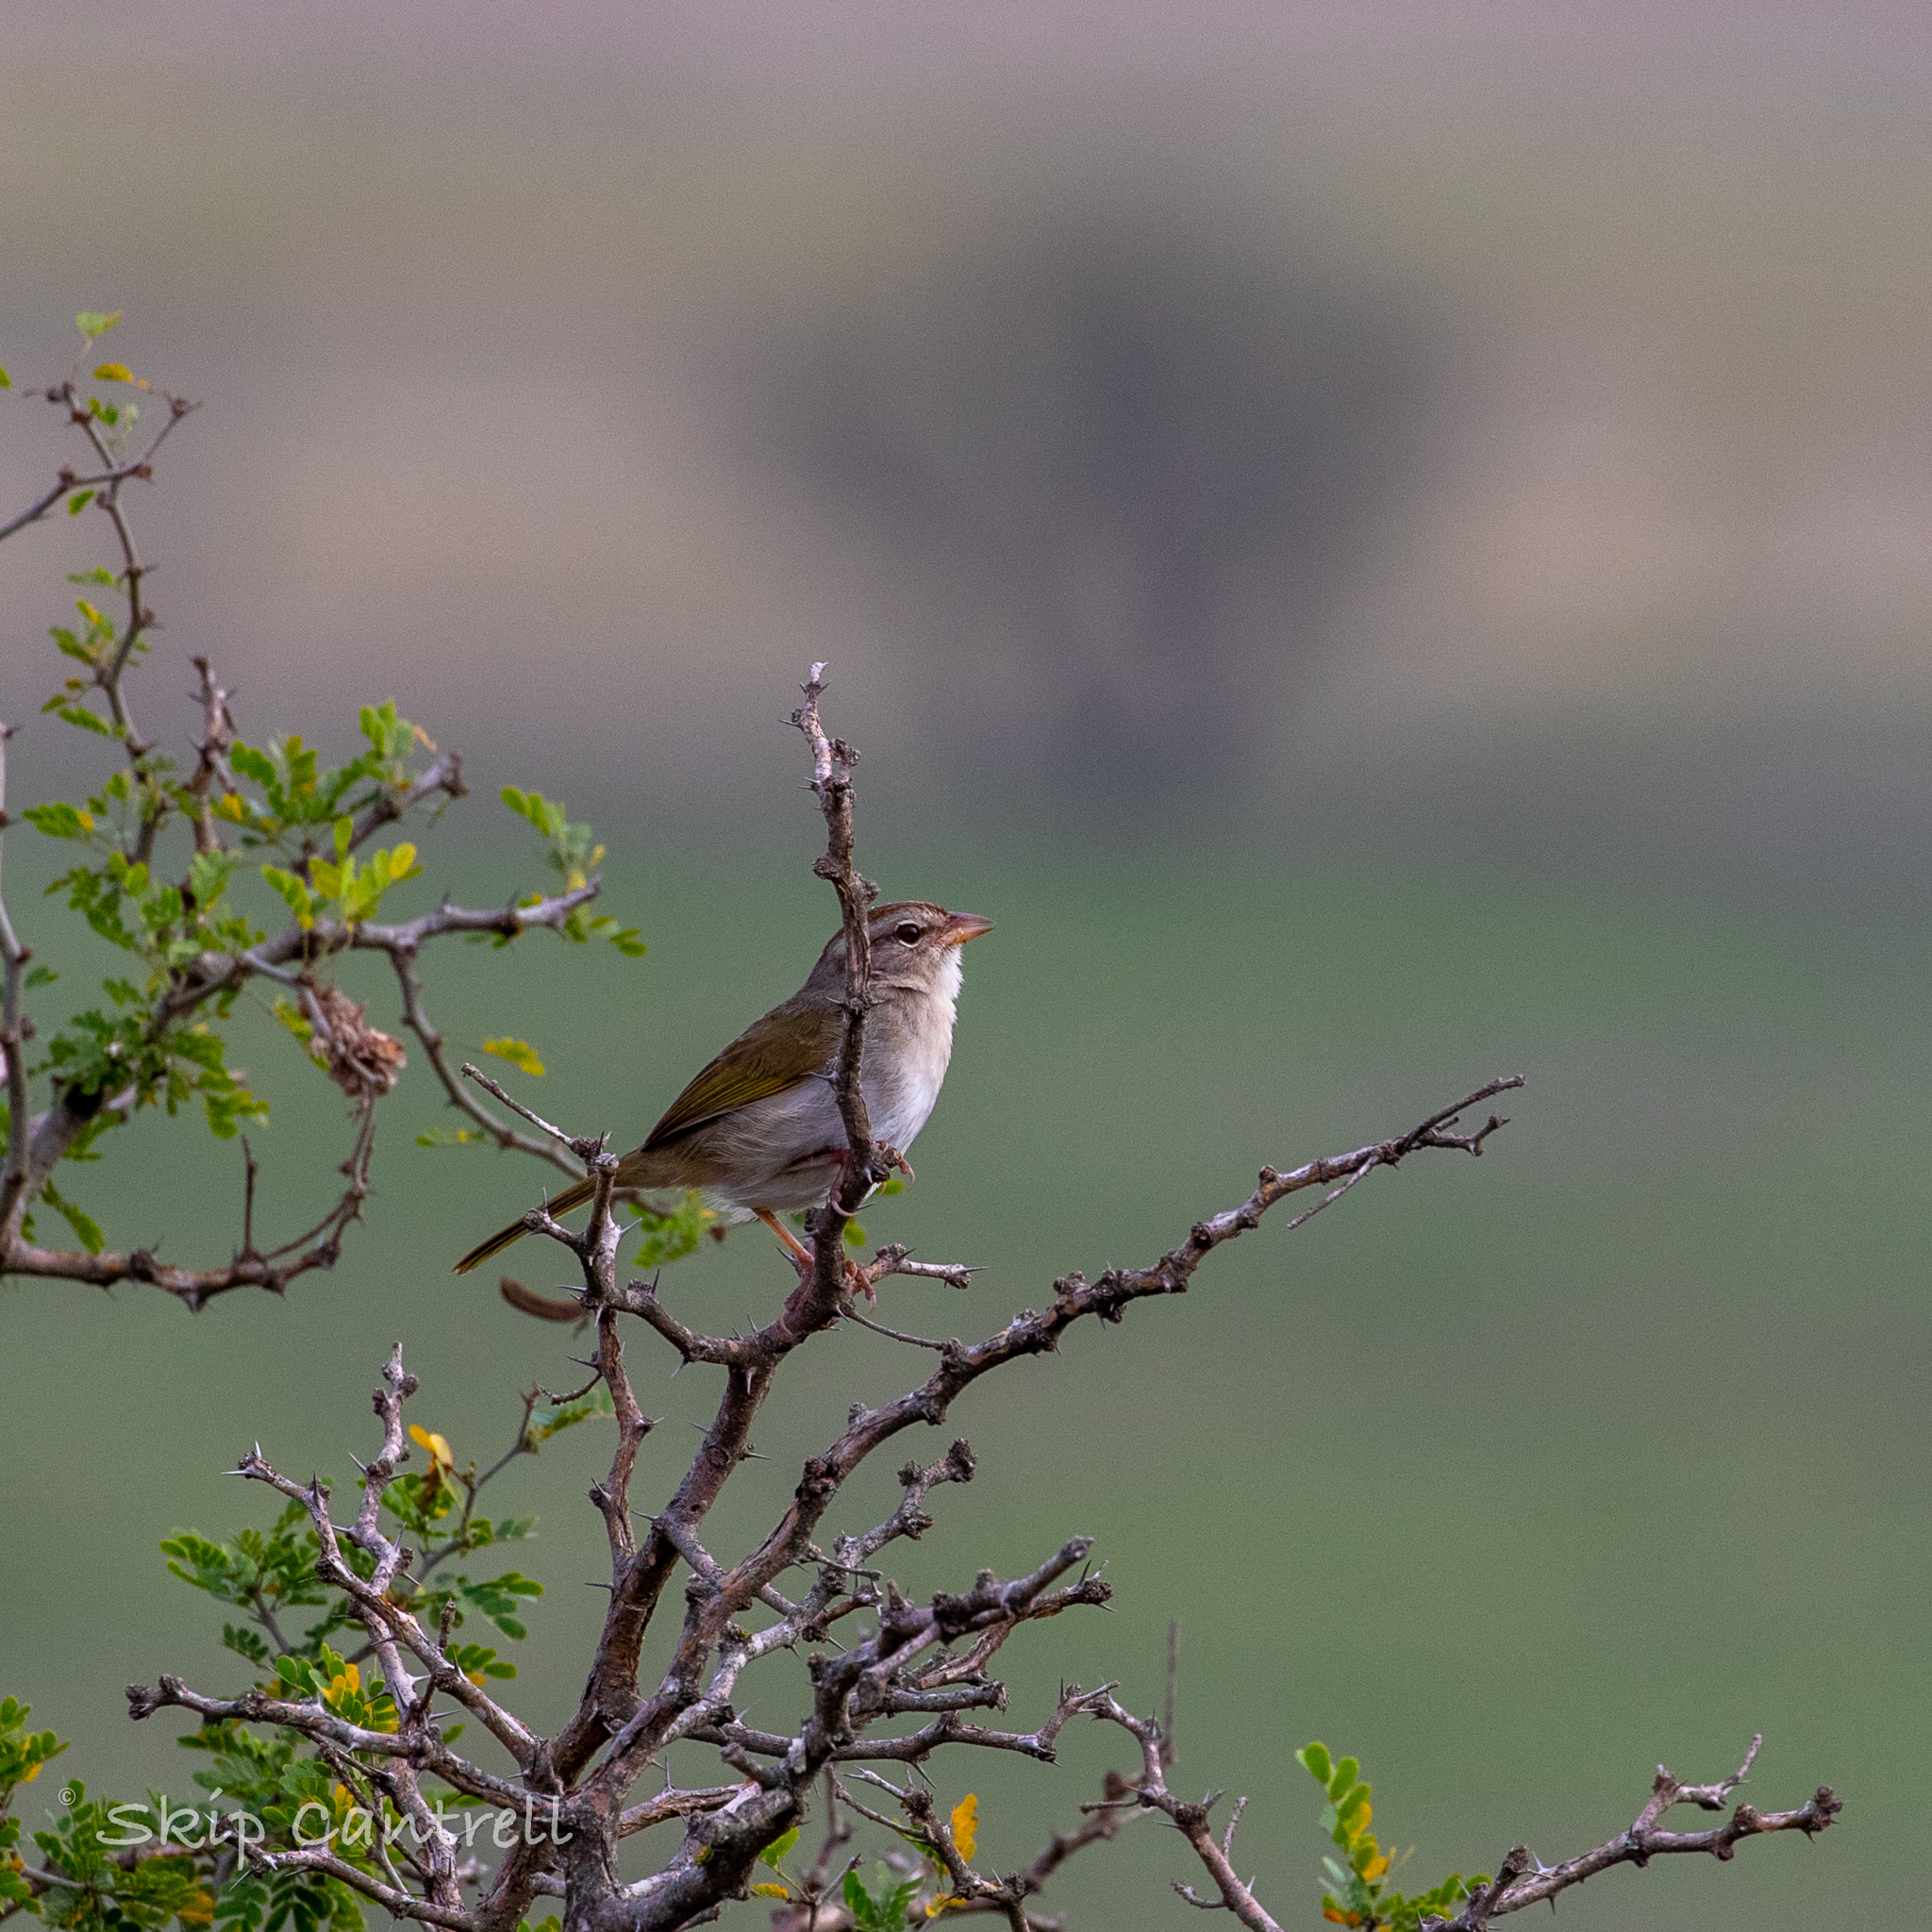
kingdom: Animalia
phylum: Chordata
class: Aves
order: Passeriformes
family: Passerellidae
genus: Arremonops
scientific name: Arremonops rufivirgatus
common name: Olive sparrow
